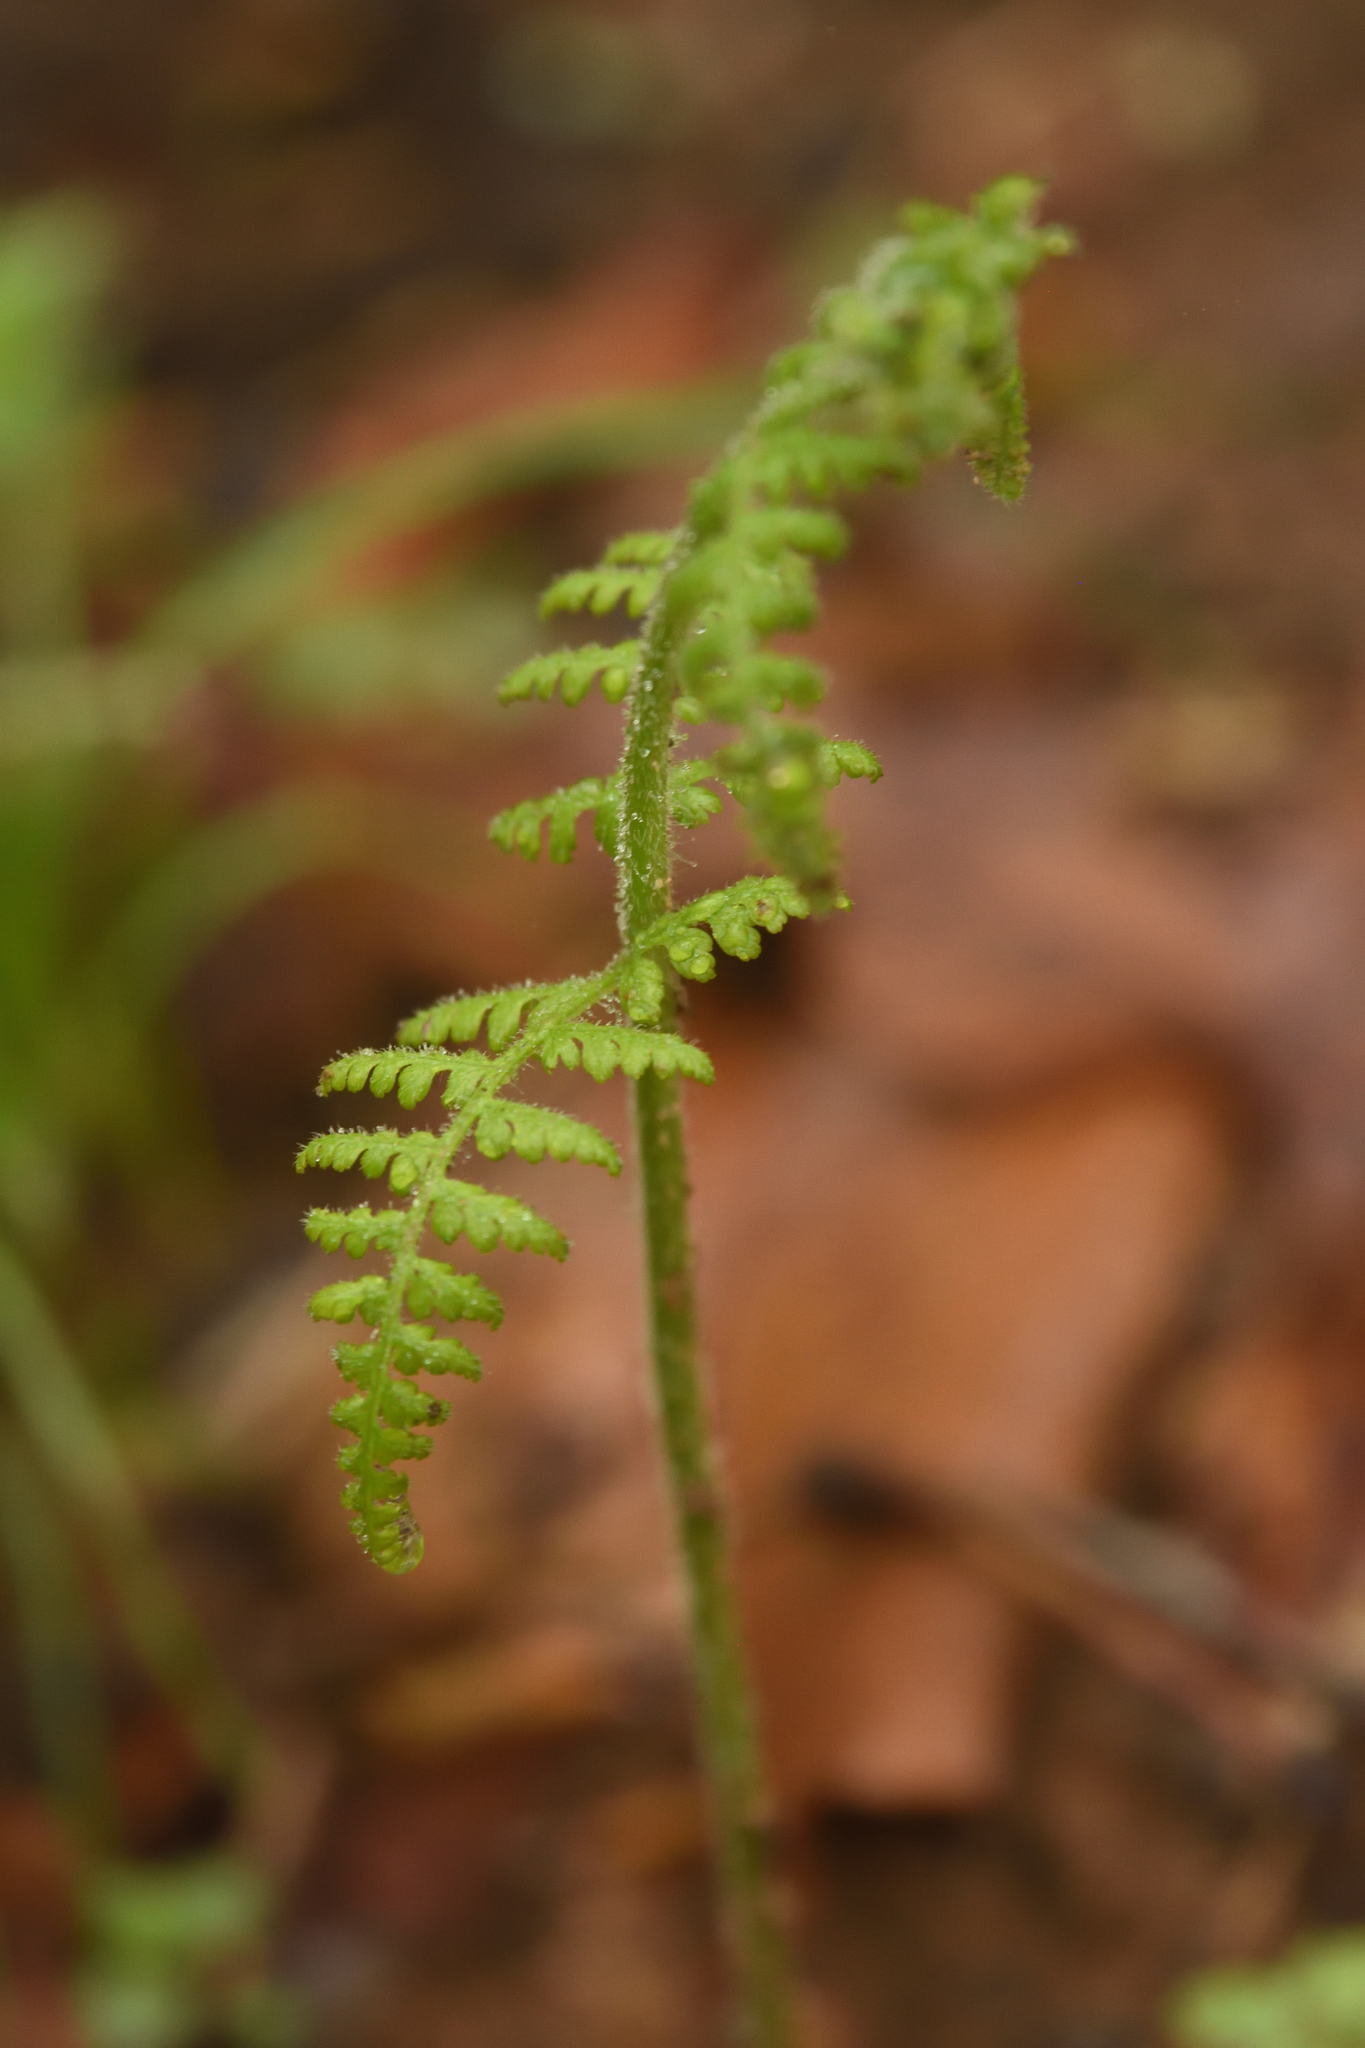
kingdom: Plantae
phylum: Tracheophyta
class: Polypodiopsida
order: Polypodiales
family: Dennstaedtiaceae
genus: Sitobolium
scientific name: Sitobolium punctilobum
